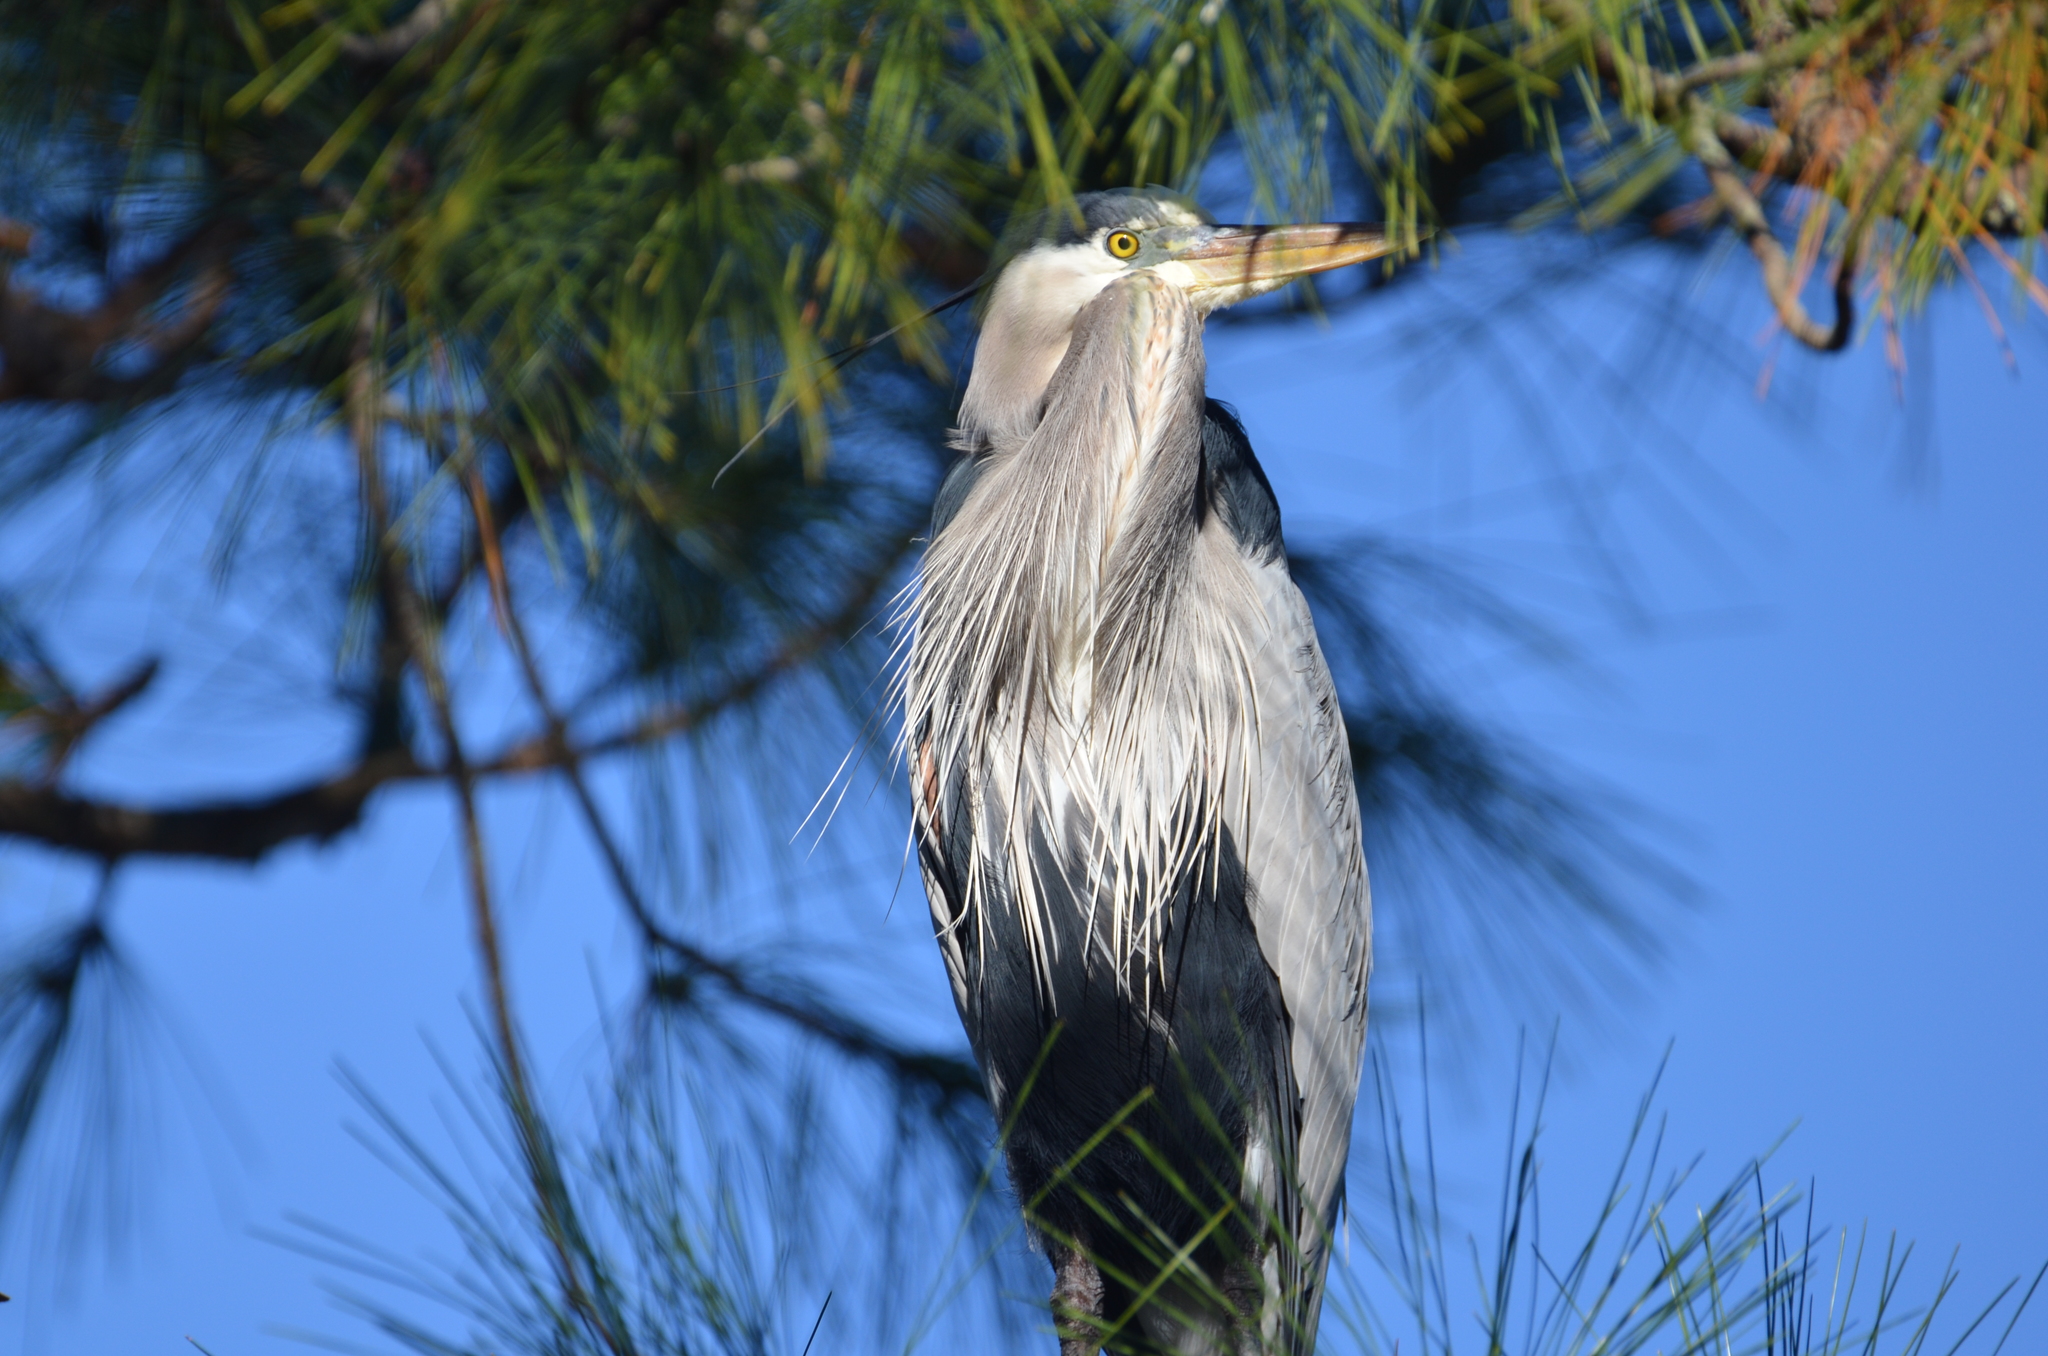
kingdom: Animalia
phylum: Chordata
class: Aves
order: Pelecaniformes
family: Ardeidae
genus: Ardea
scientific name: Ardea herodias
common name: Great blue heron
